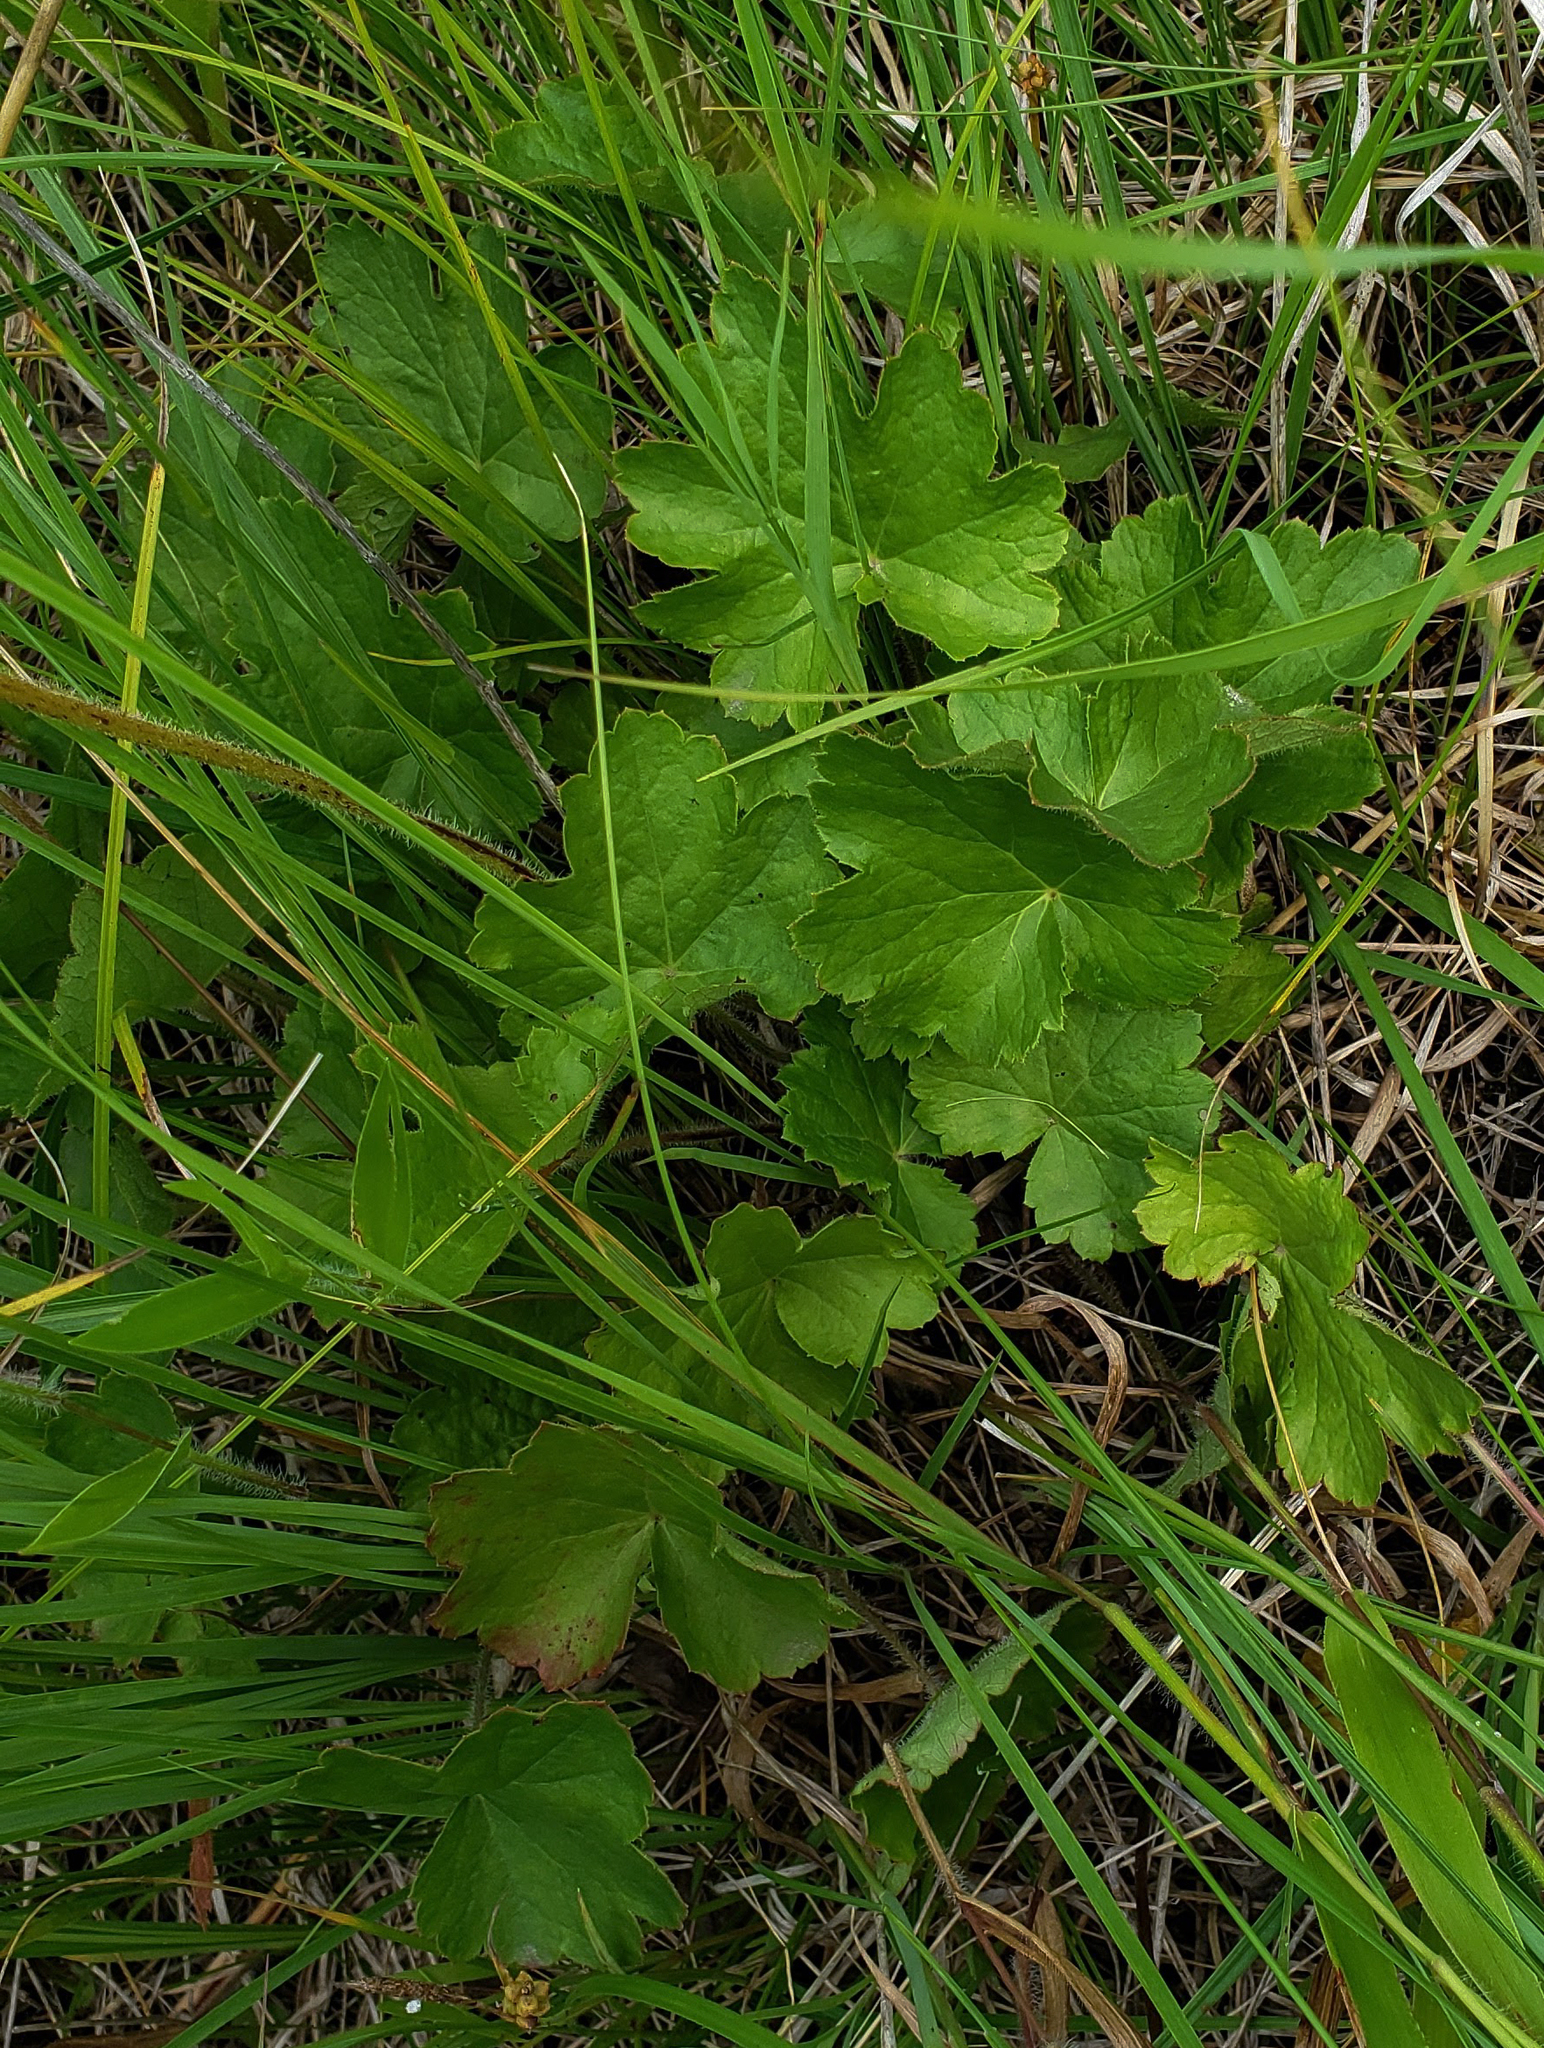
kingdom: Plantae
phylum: Tracheophyta
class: Magnoliopsida
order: Saxifragales
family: Saxifragaceae
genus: Heuchera
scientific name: Heuchera richardsonii
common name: Richardson's alumroot
